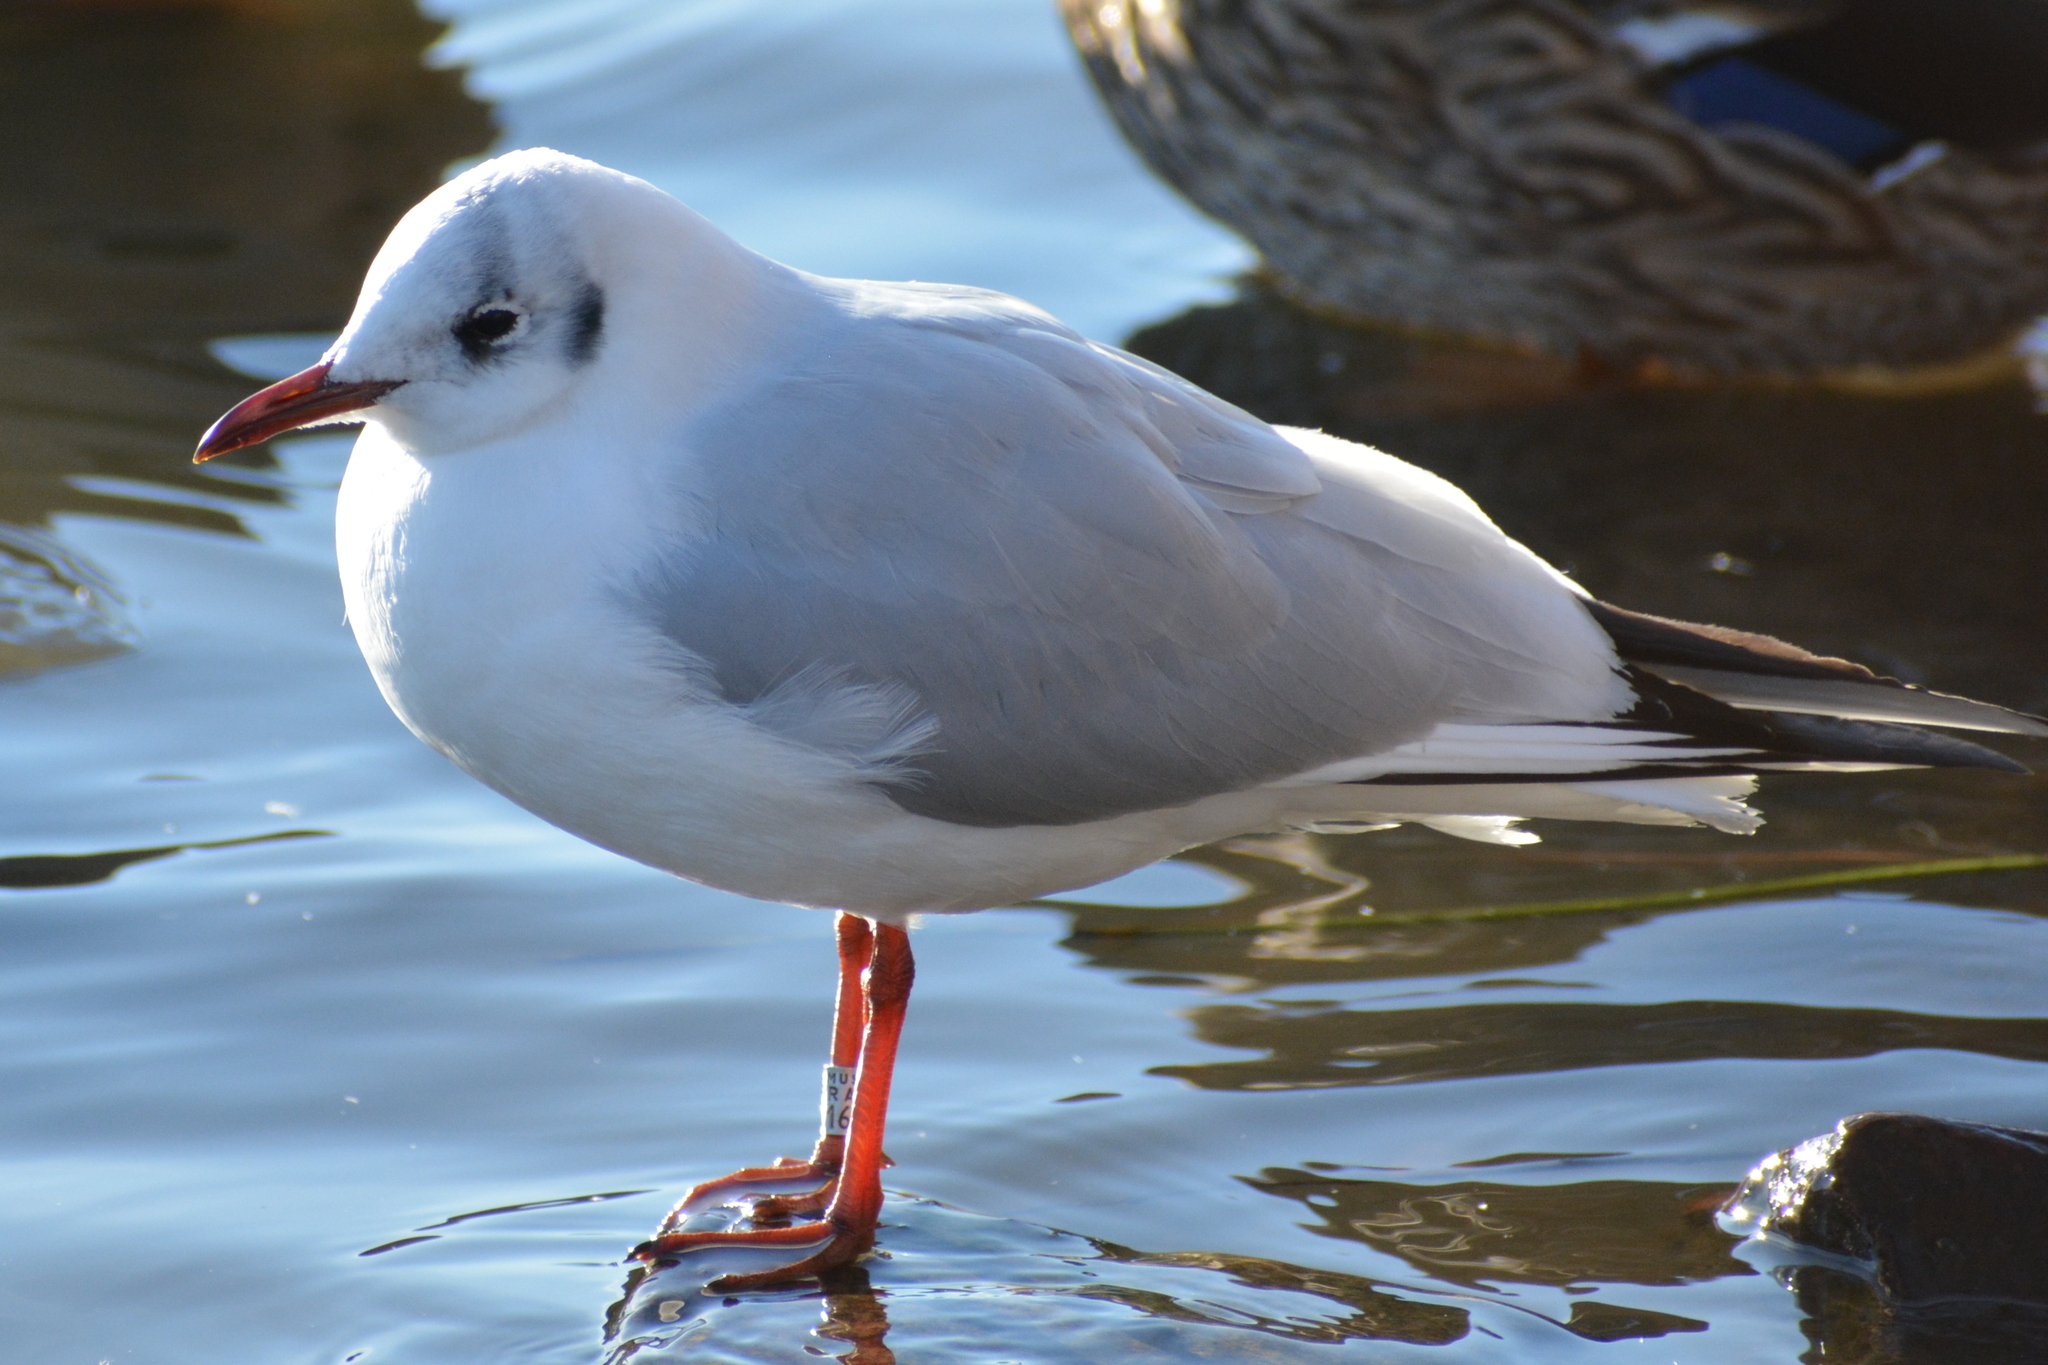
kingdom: Animalia
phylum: Chordata
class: Aves
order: Charadriiformes
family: Laridae
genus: Chroicocephalus
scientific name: Chroicocephalus ridibundus
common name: Black-headed gull
